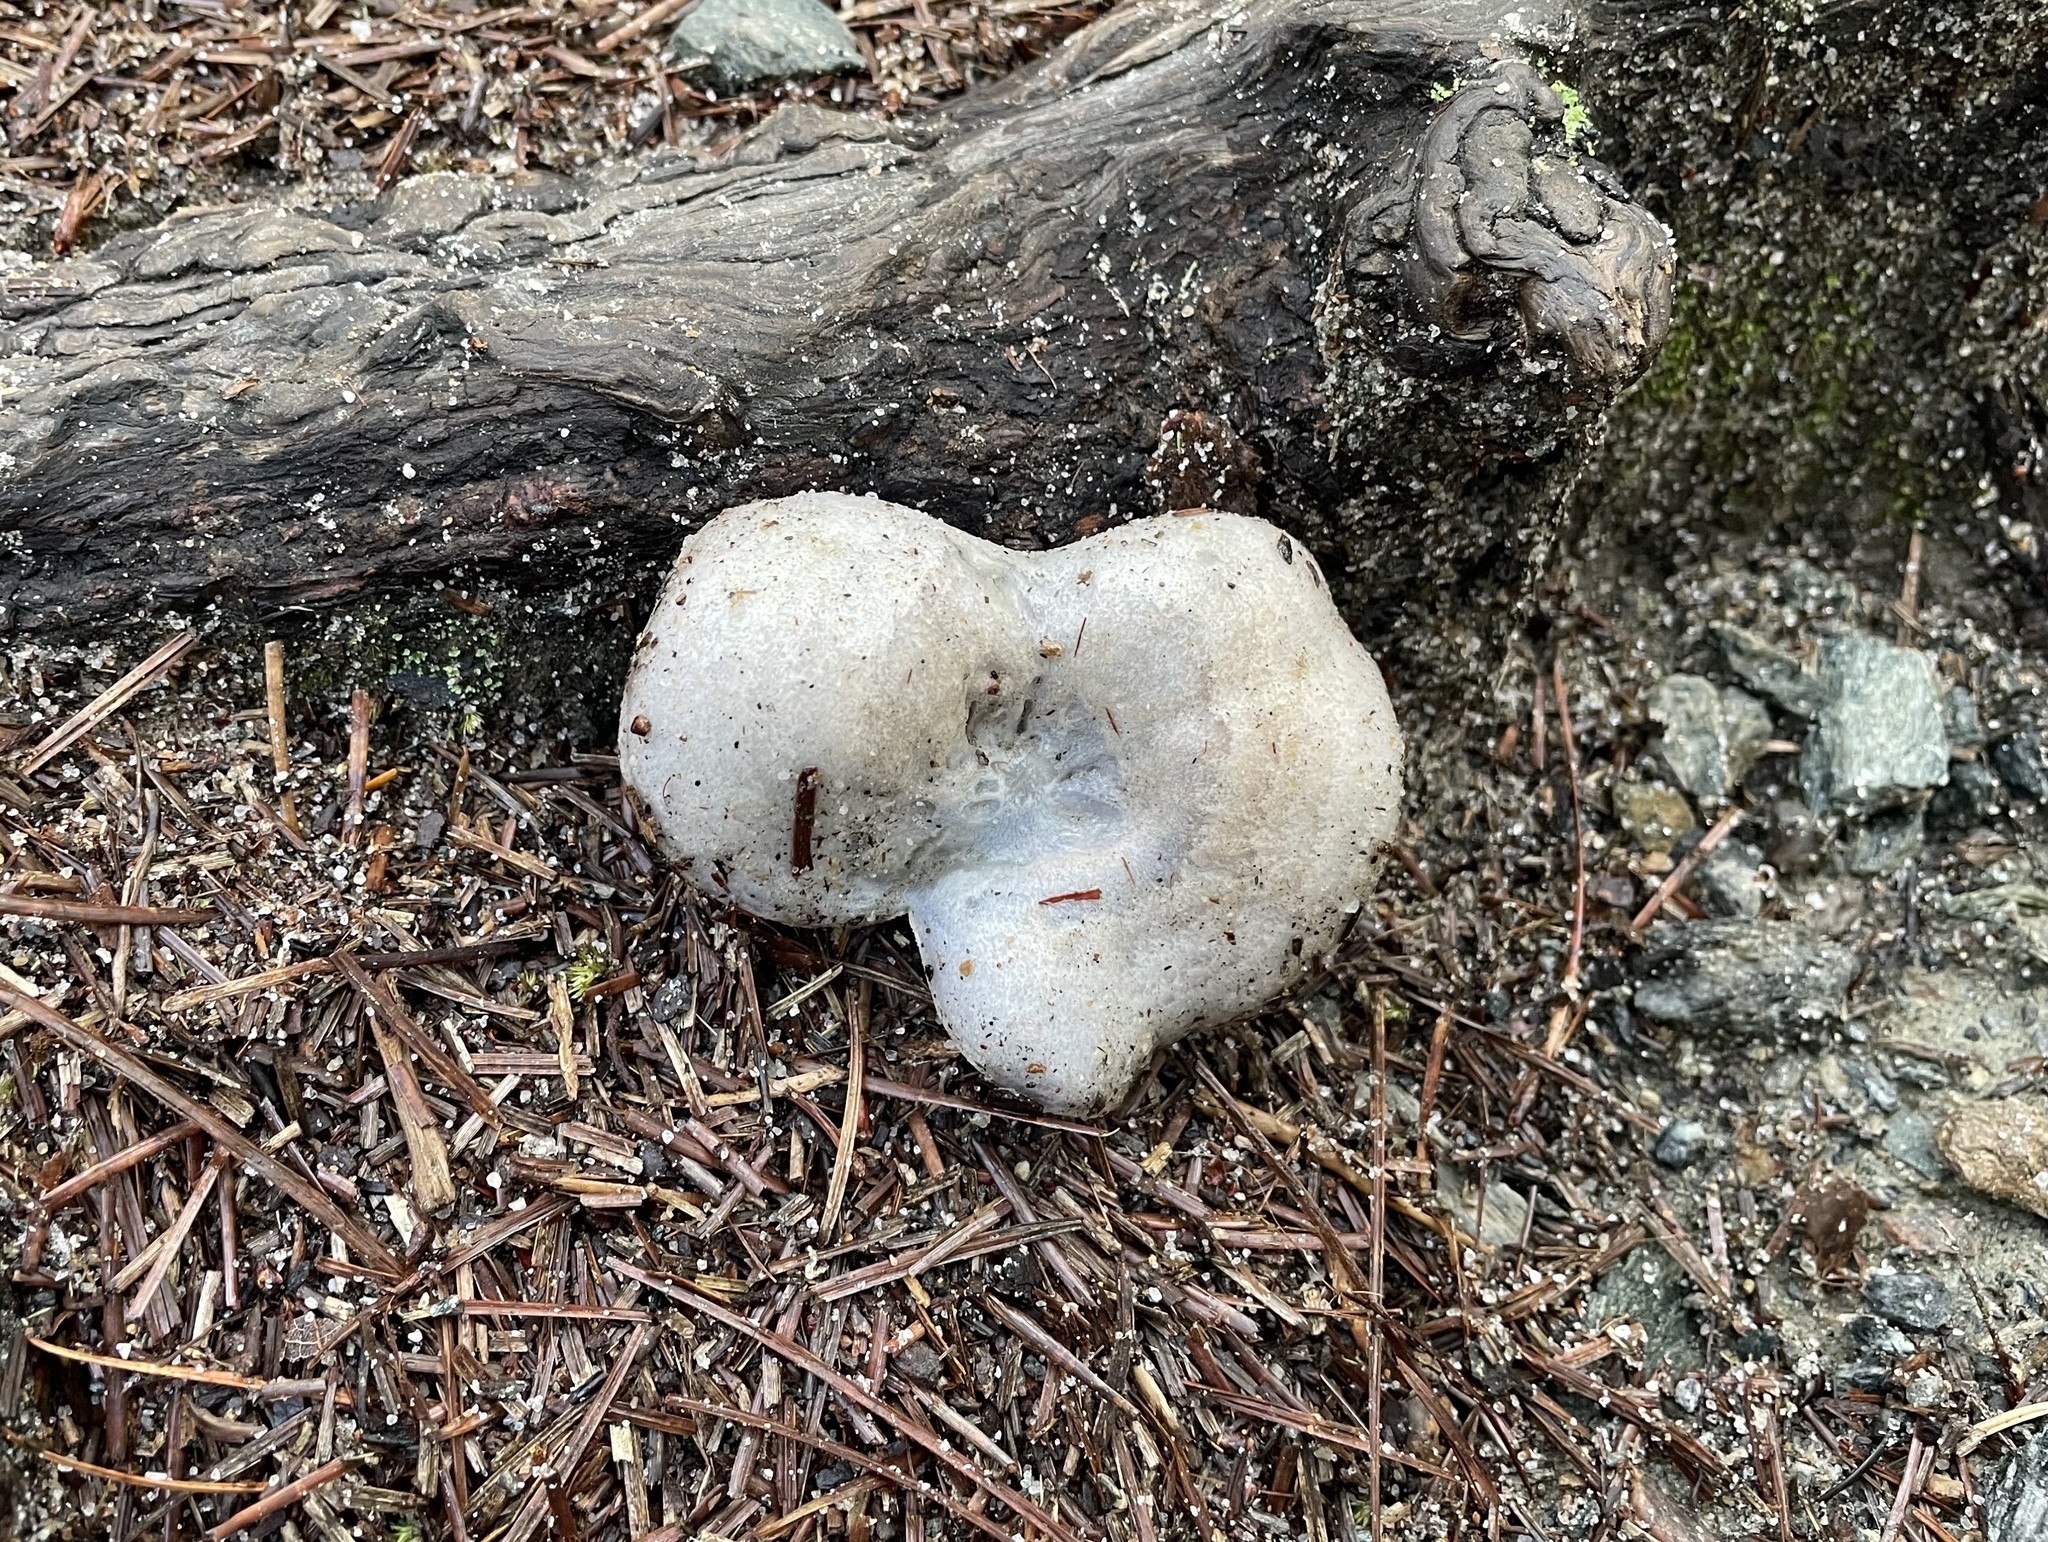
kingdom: Fungi
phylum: Basidiomycota
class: Agaricomycetes
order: Russulales
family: Russulaceae
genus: Lactarius
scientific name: Lactarius paradoxus
